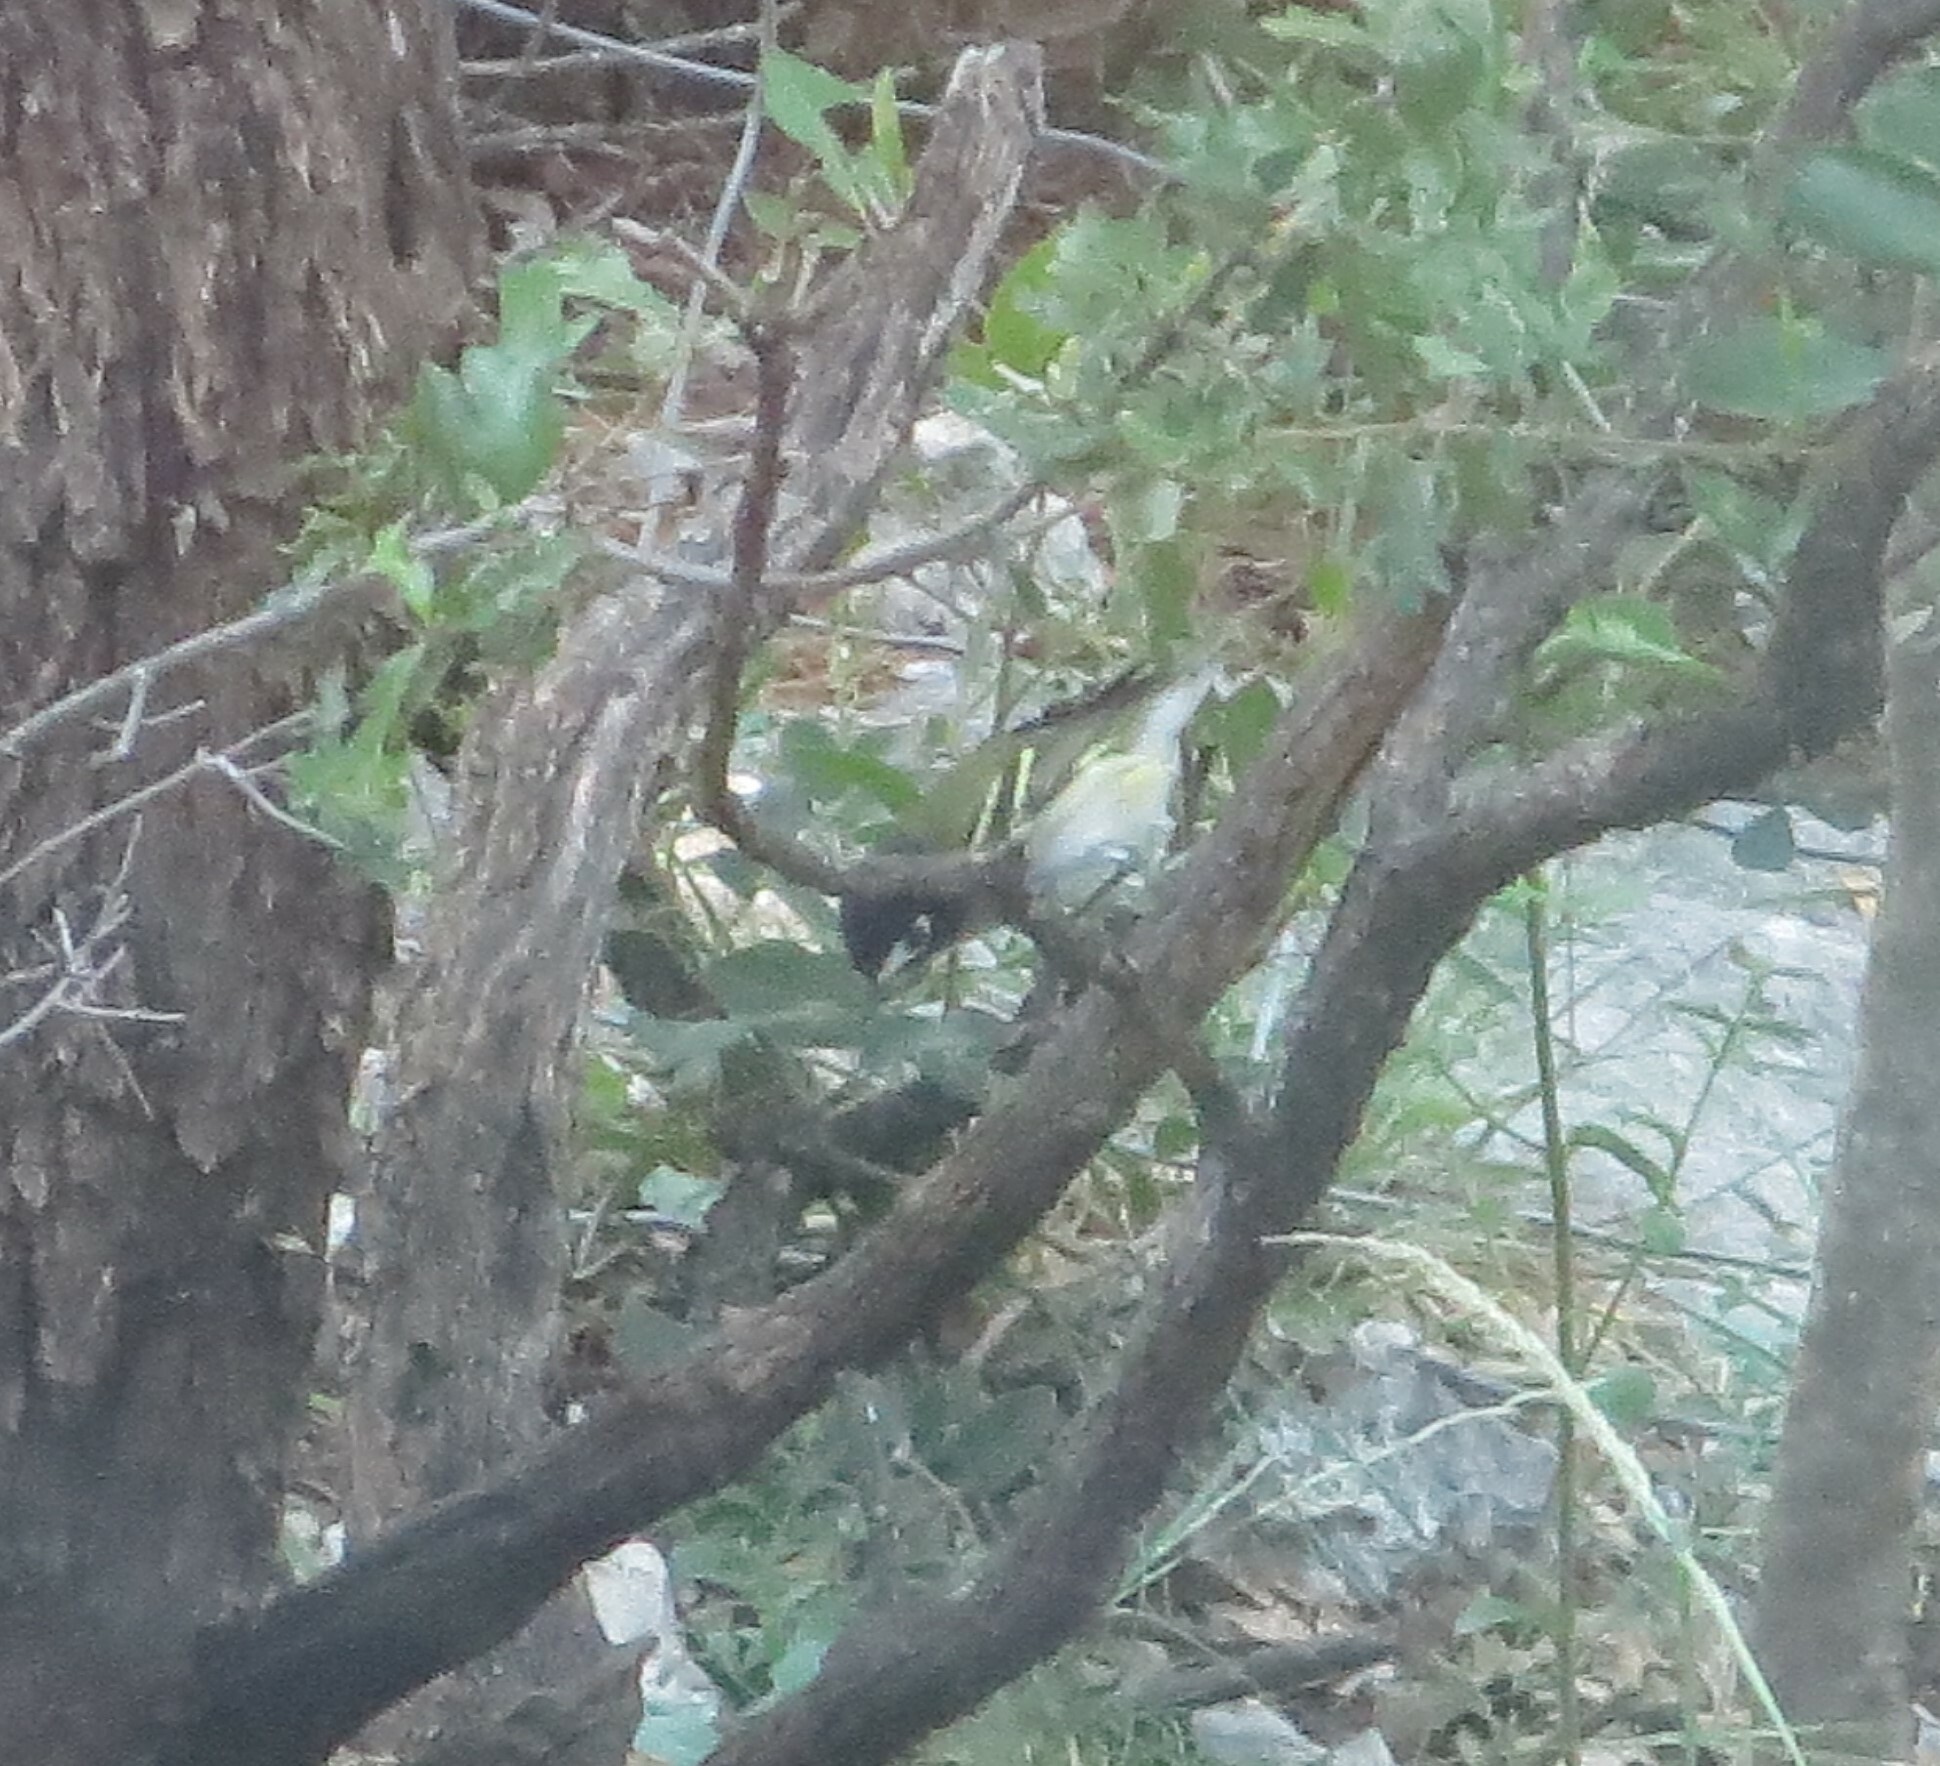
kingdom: Animalia
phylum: Chordata
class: Aves
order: Passeriformes
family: Vireonidae
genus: Vireo
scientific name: Vireo atricapilla
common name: Black-capped vireo
